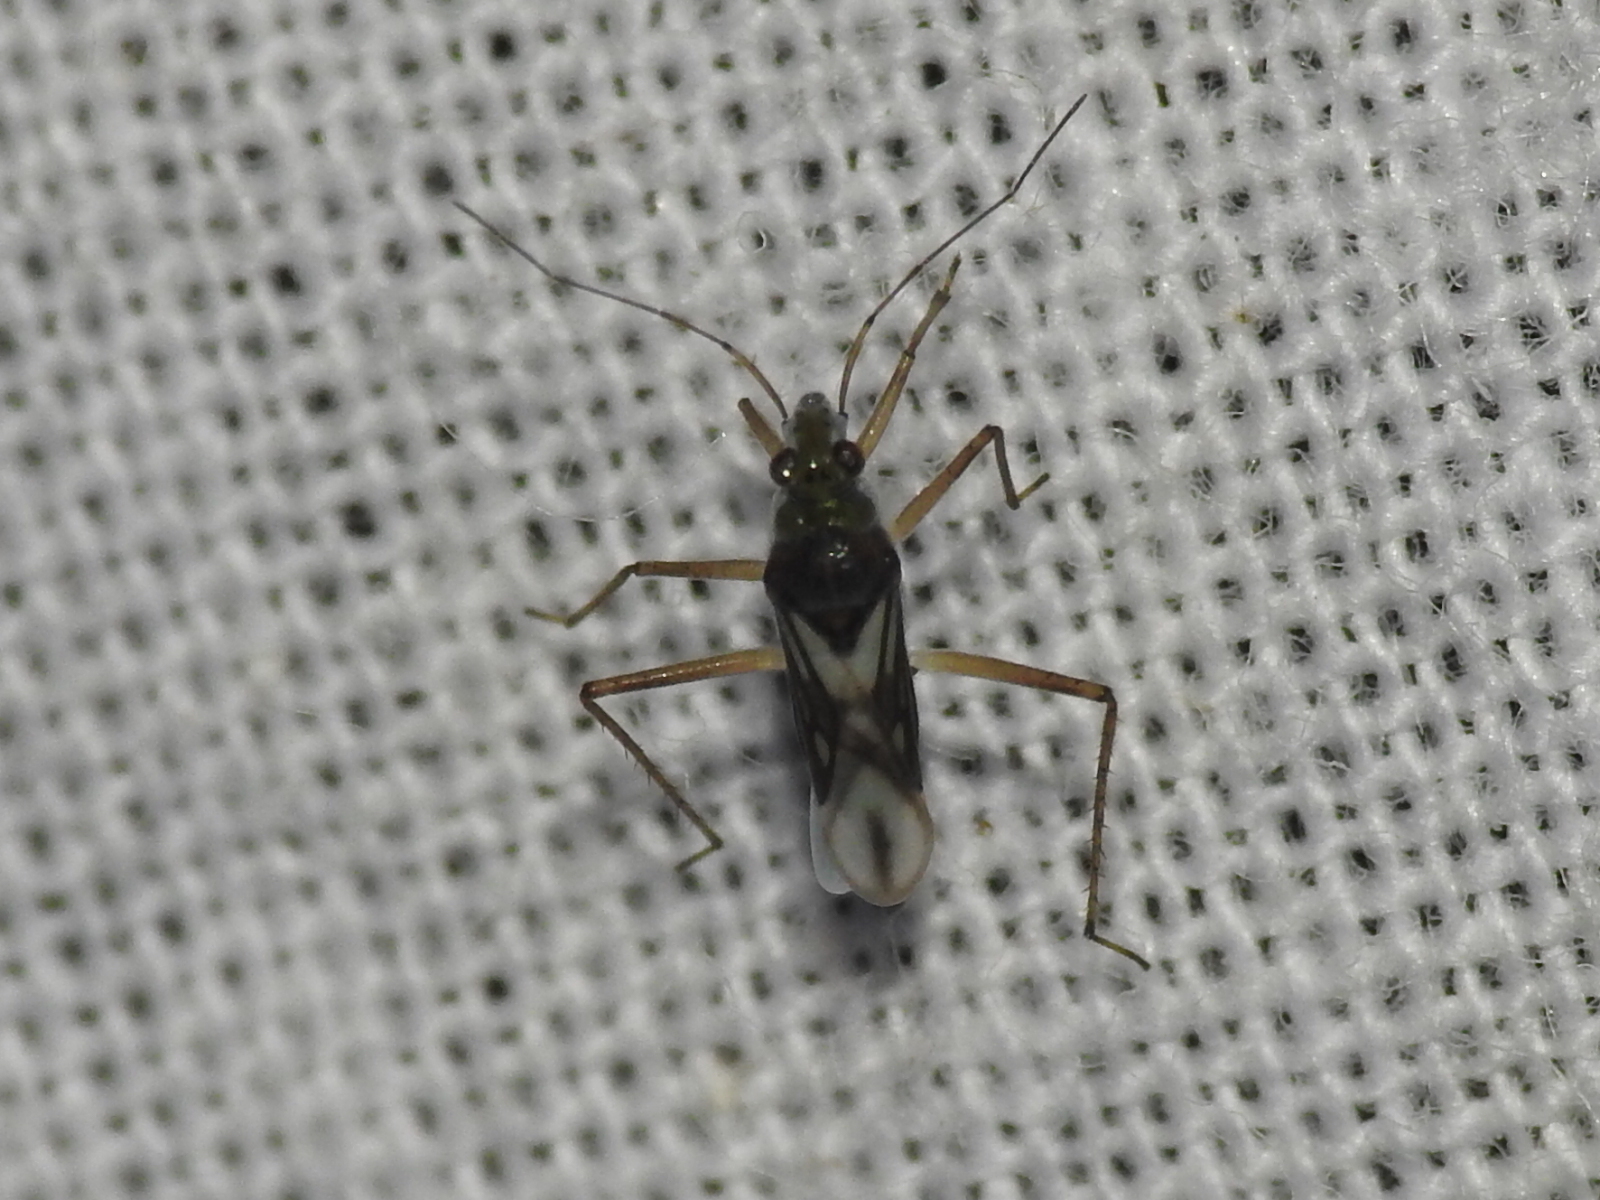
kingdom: Animalia
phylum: Arthropoda
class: Insecta
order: Hemiptera
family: Mesoveliidae
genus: Mesovelia
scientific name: Mesovelia mulsanti
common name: Water treaders
